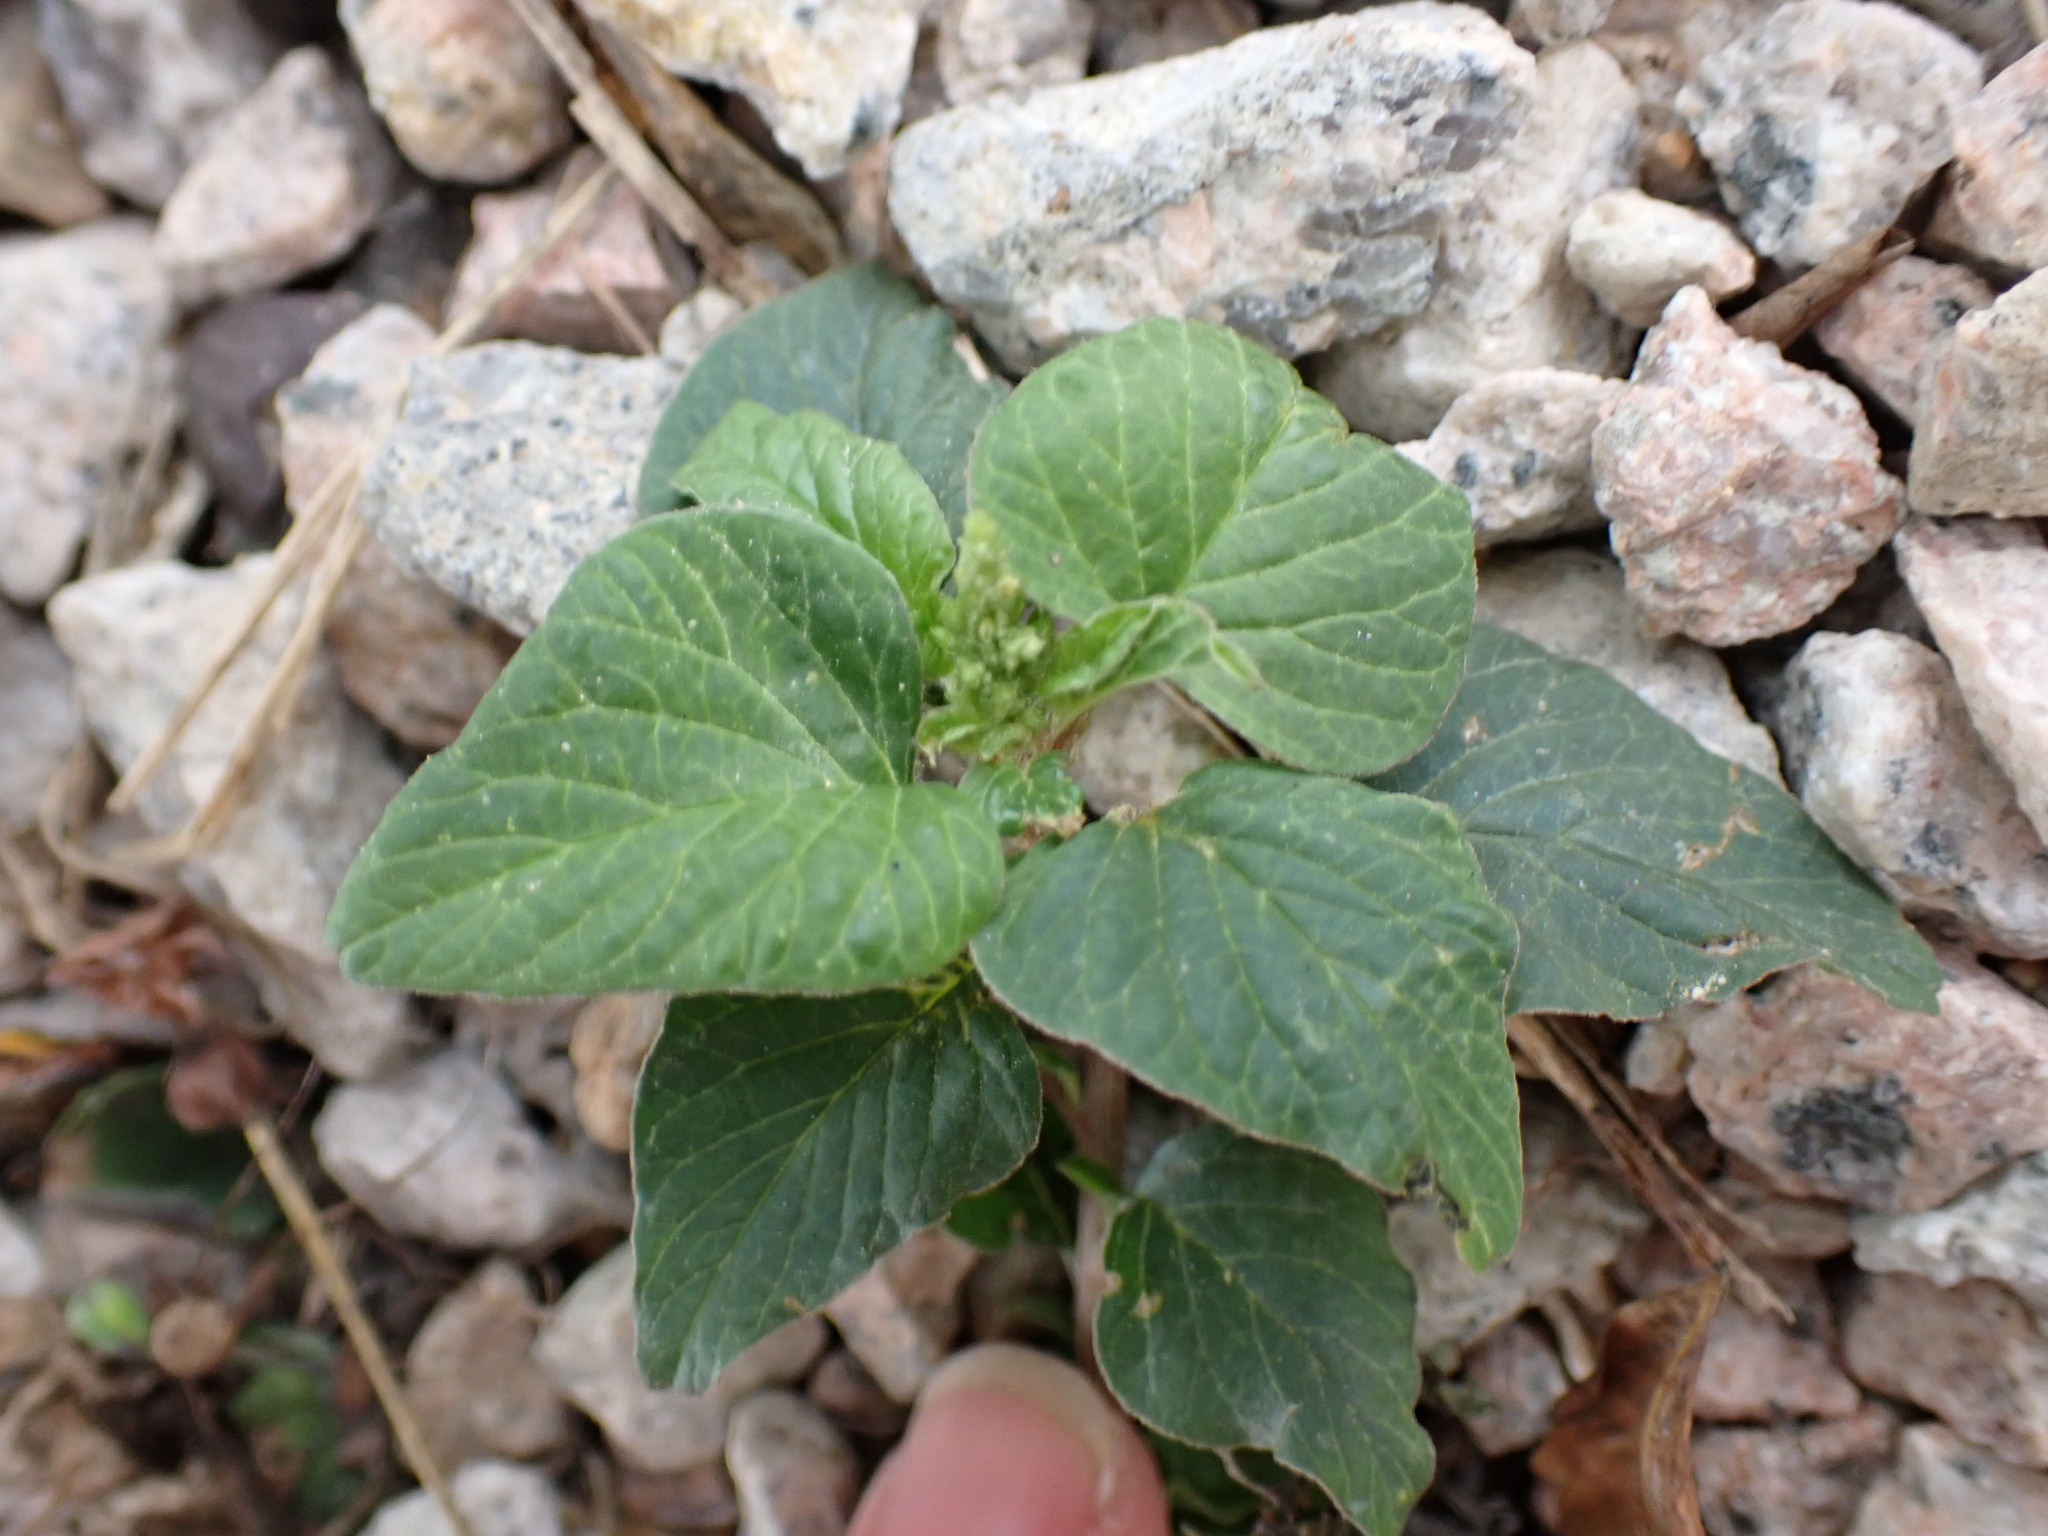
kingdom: Plantae
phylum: Tracheophyta
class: Magnoliopsida
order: Caryophyllales
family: Amaranthaceae
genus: Amaranthus
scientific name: Amaranthus viridis
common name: Slender amaranth
